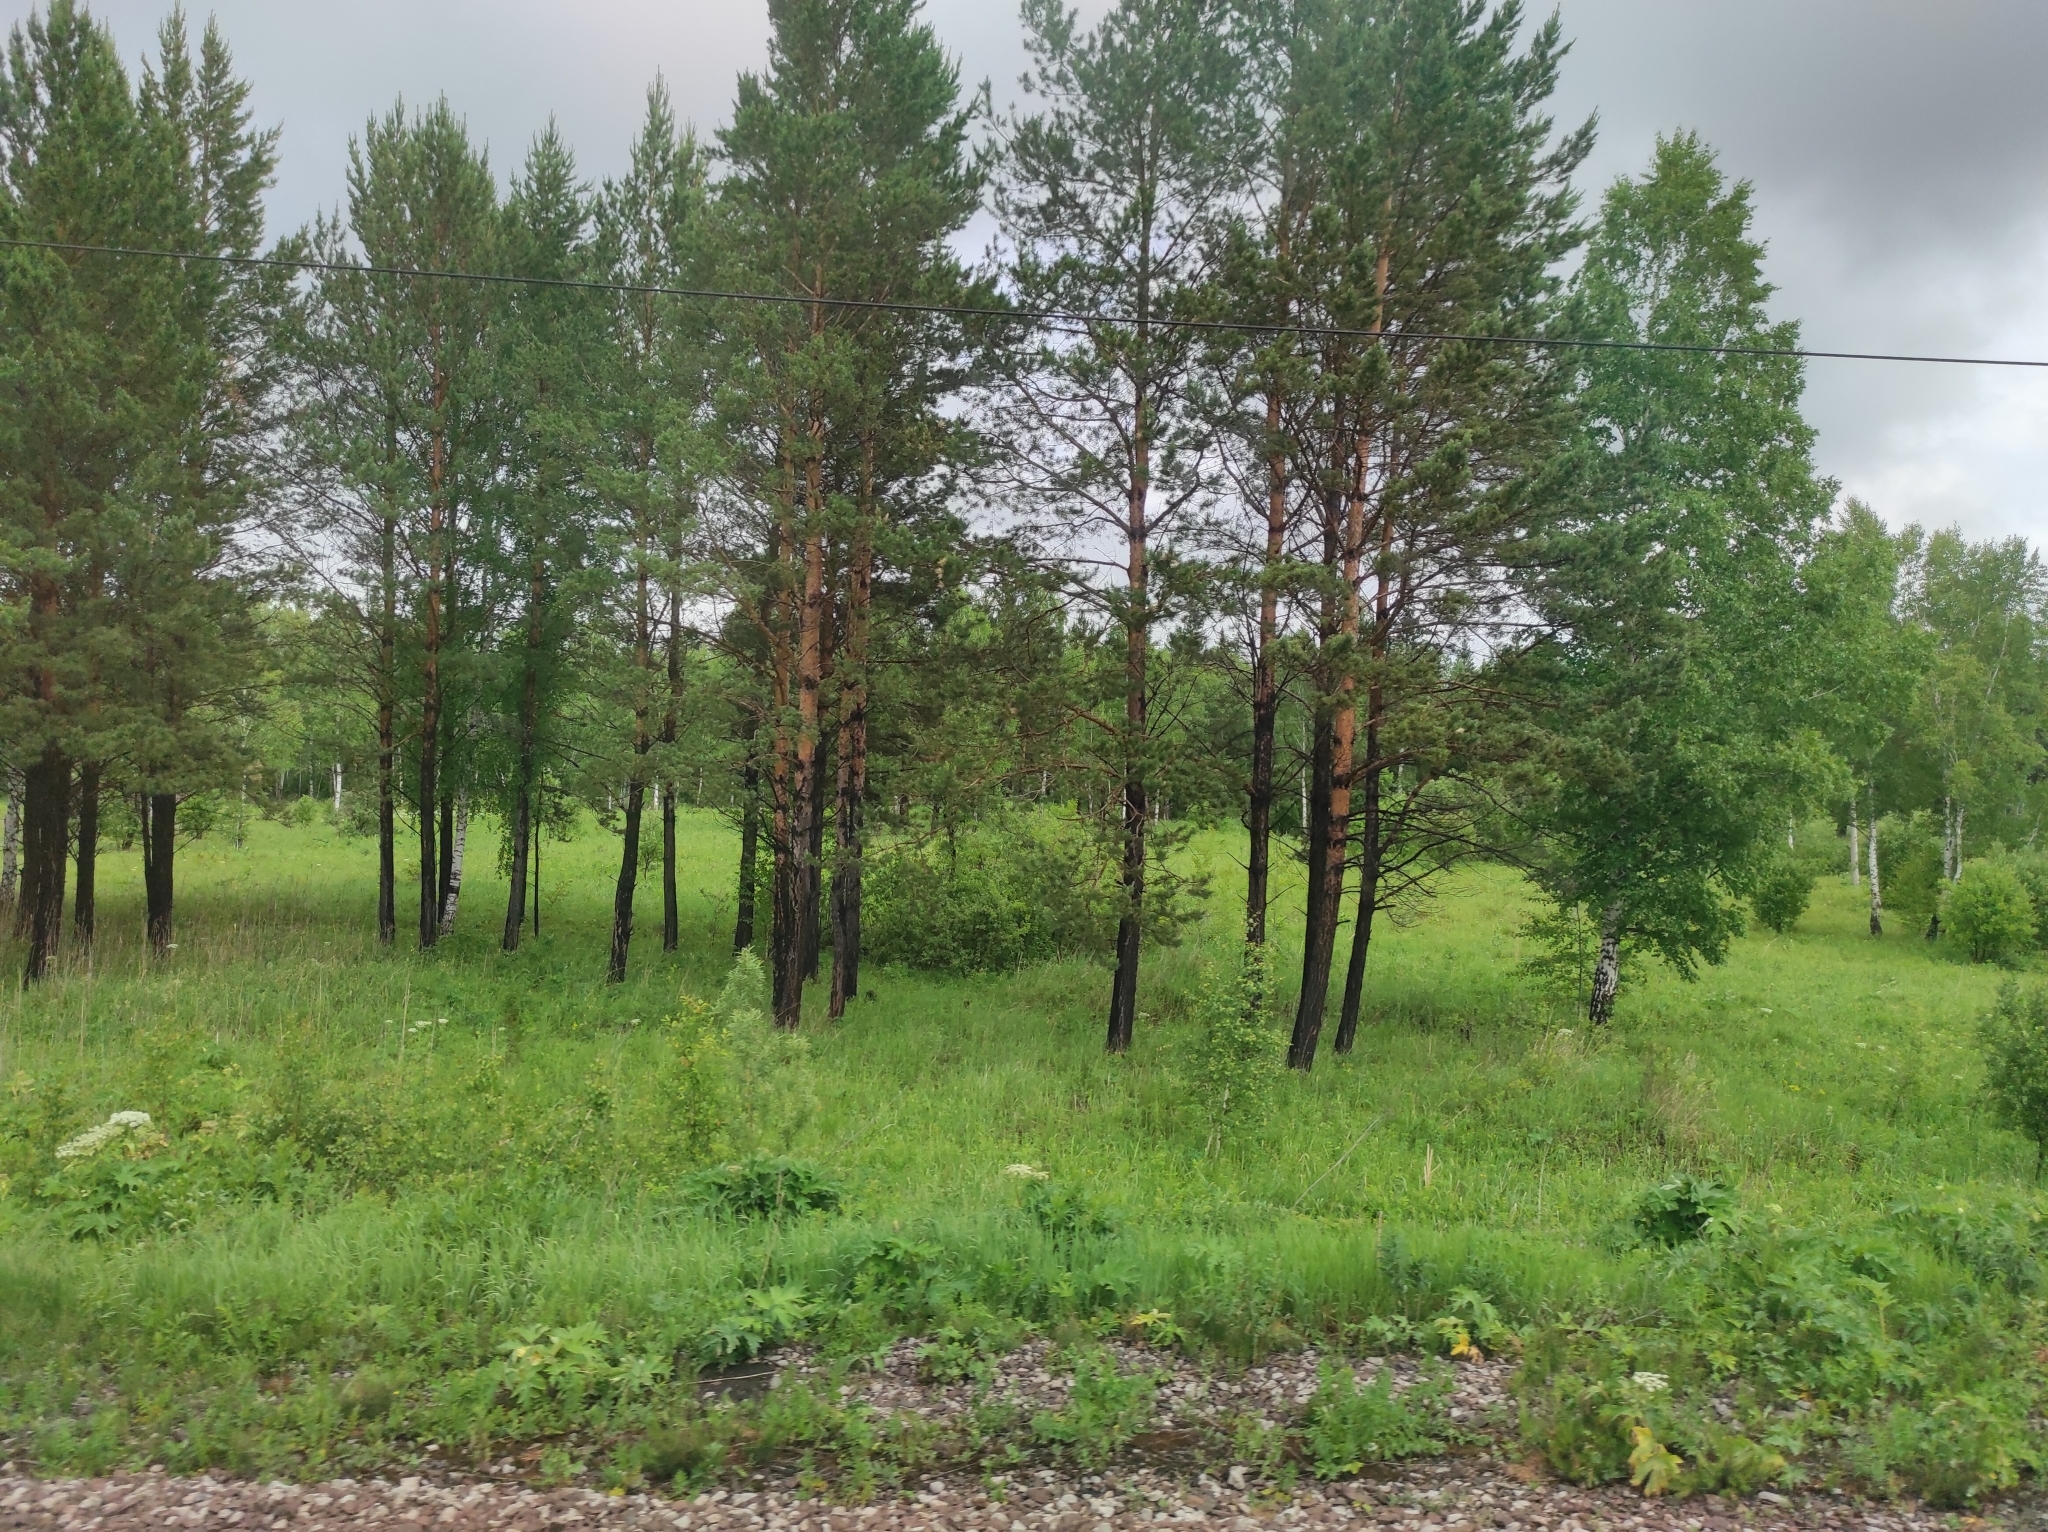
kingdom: Plantae
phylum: Tracheophyta
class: Pinopsida
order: Pinales
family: Pinaceae
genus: Pinus
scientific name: Pinus sylvestris
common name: Scots pine
